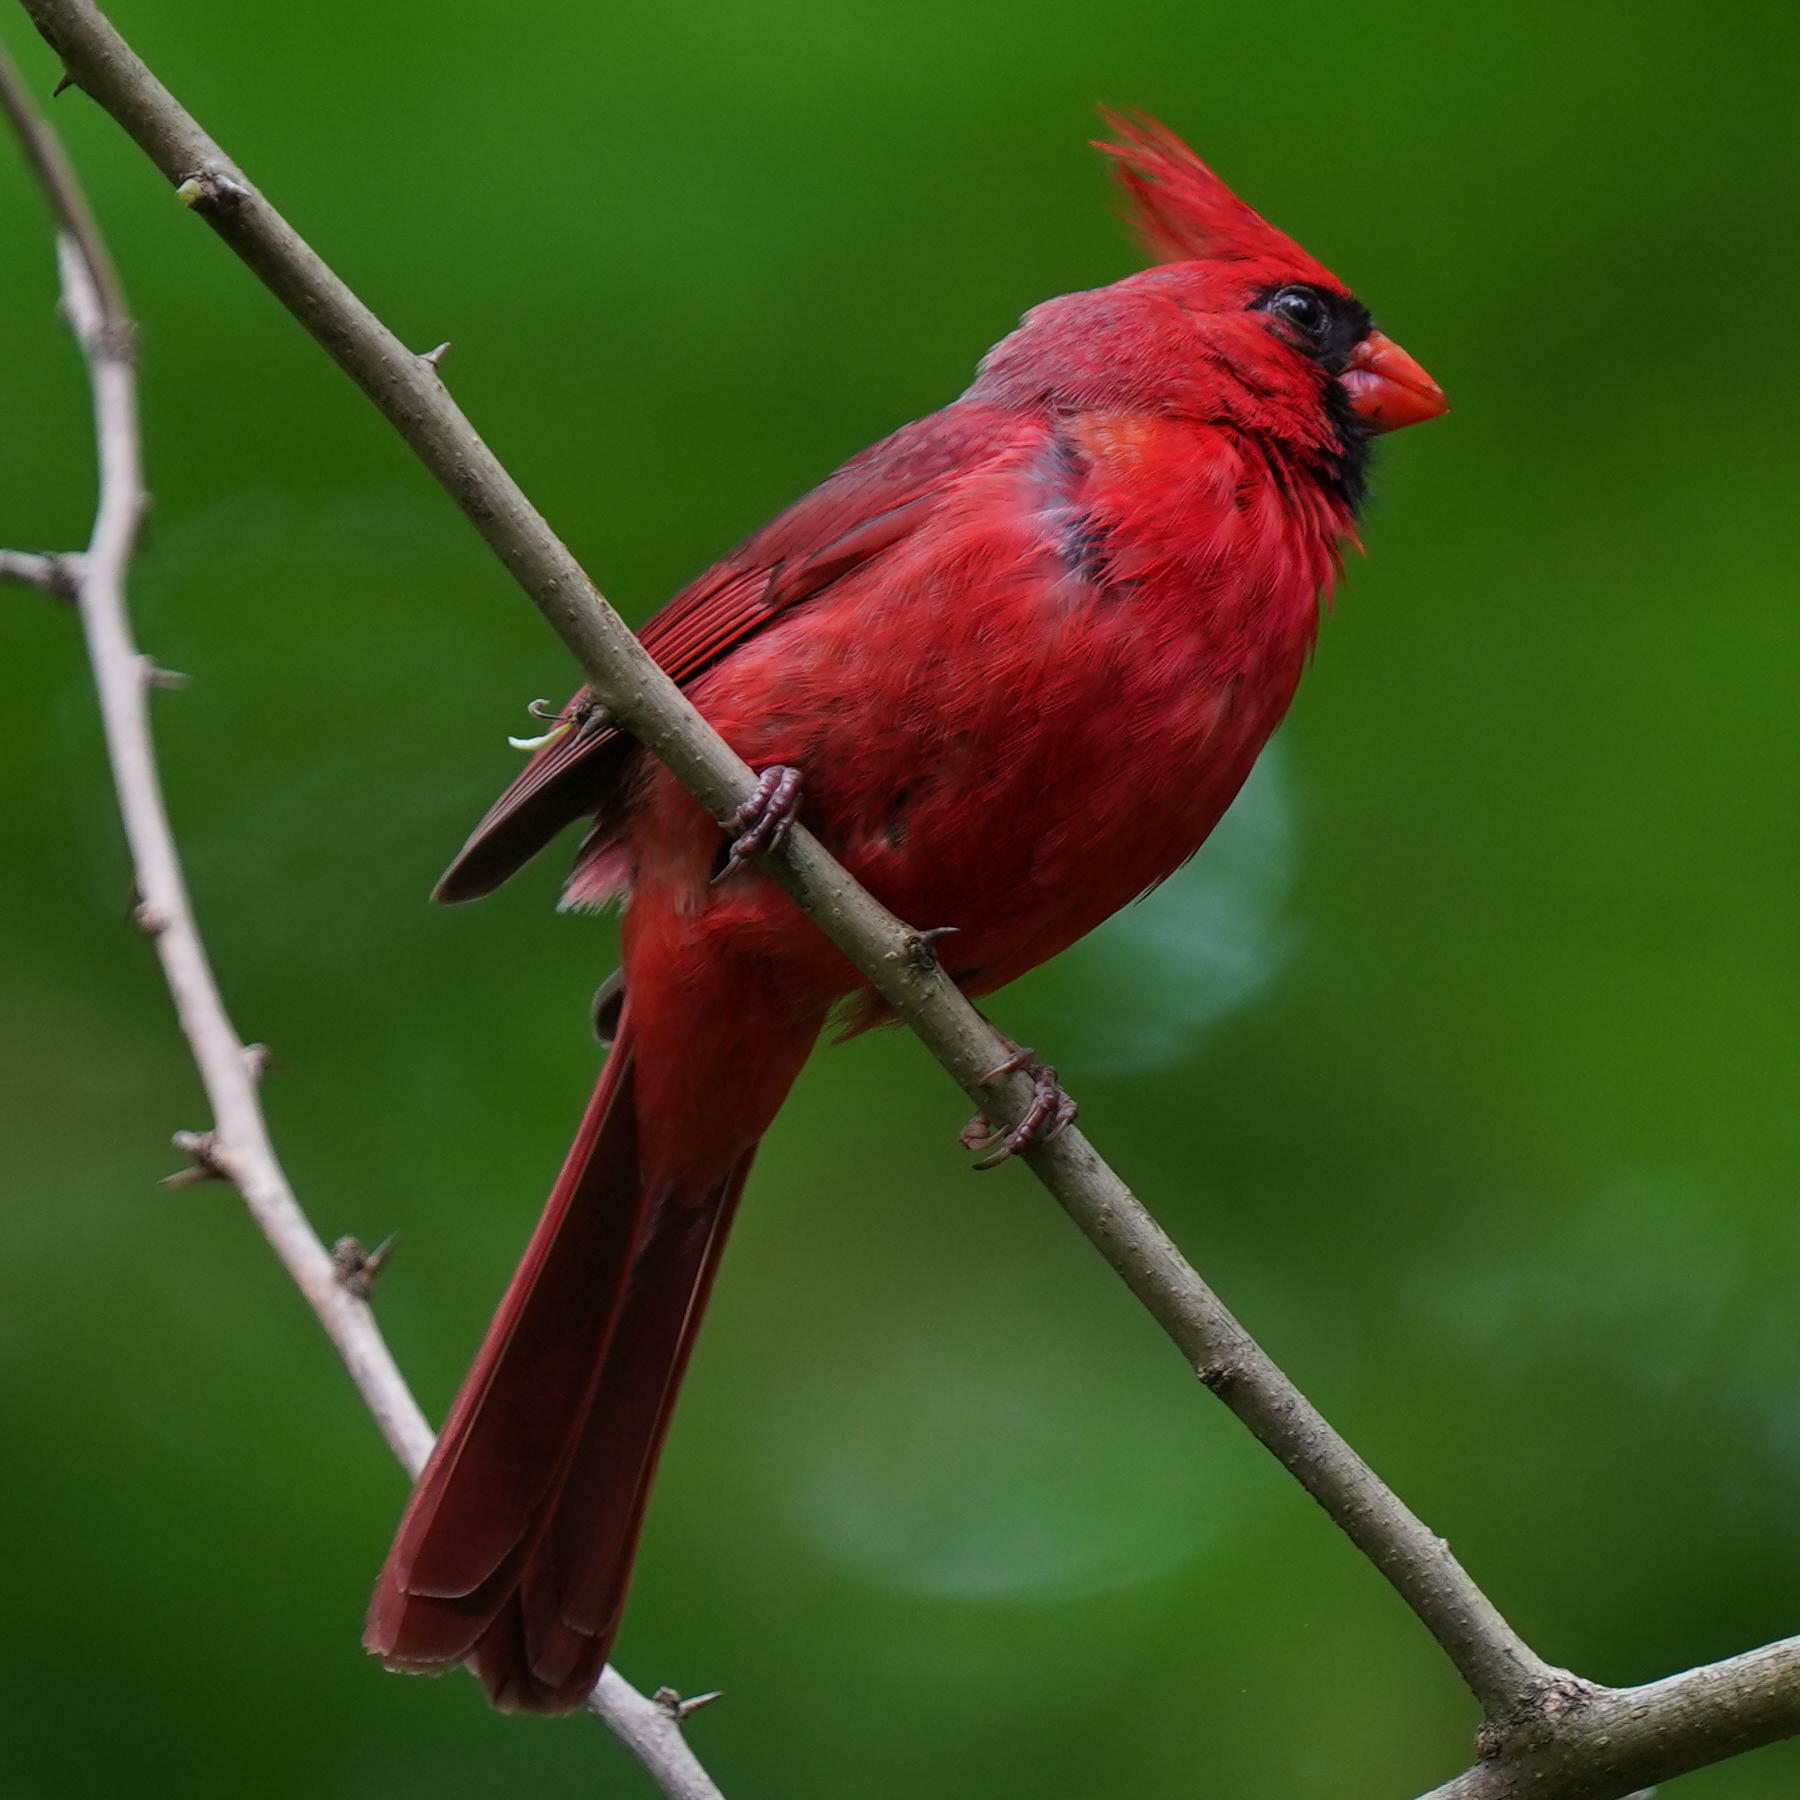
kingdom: Animalia
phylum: Chordata
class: Aves
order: Passeriformes
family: Cardinalidae
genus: Cardinalis
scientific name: Cardinalis cardinalis
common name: Northern cardinal
